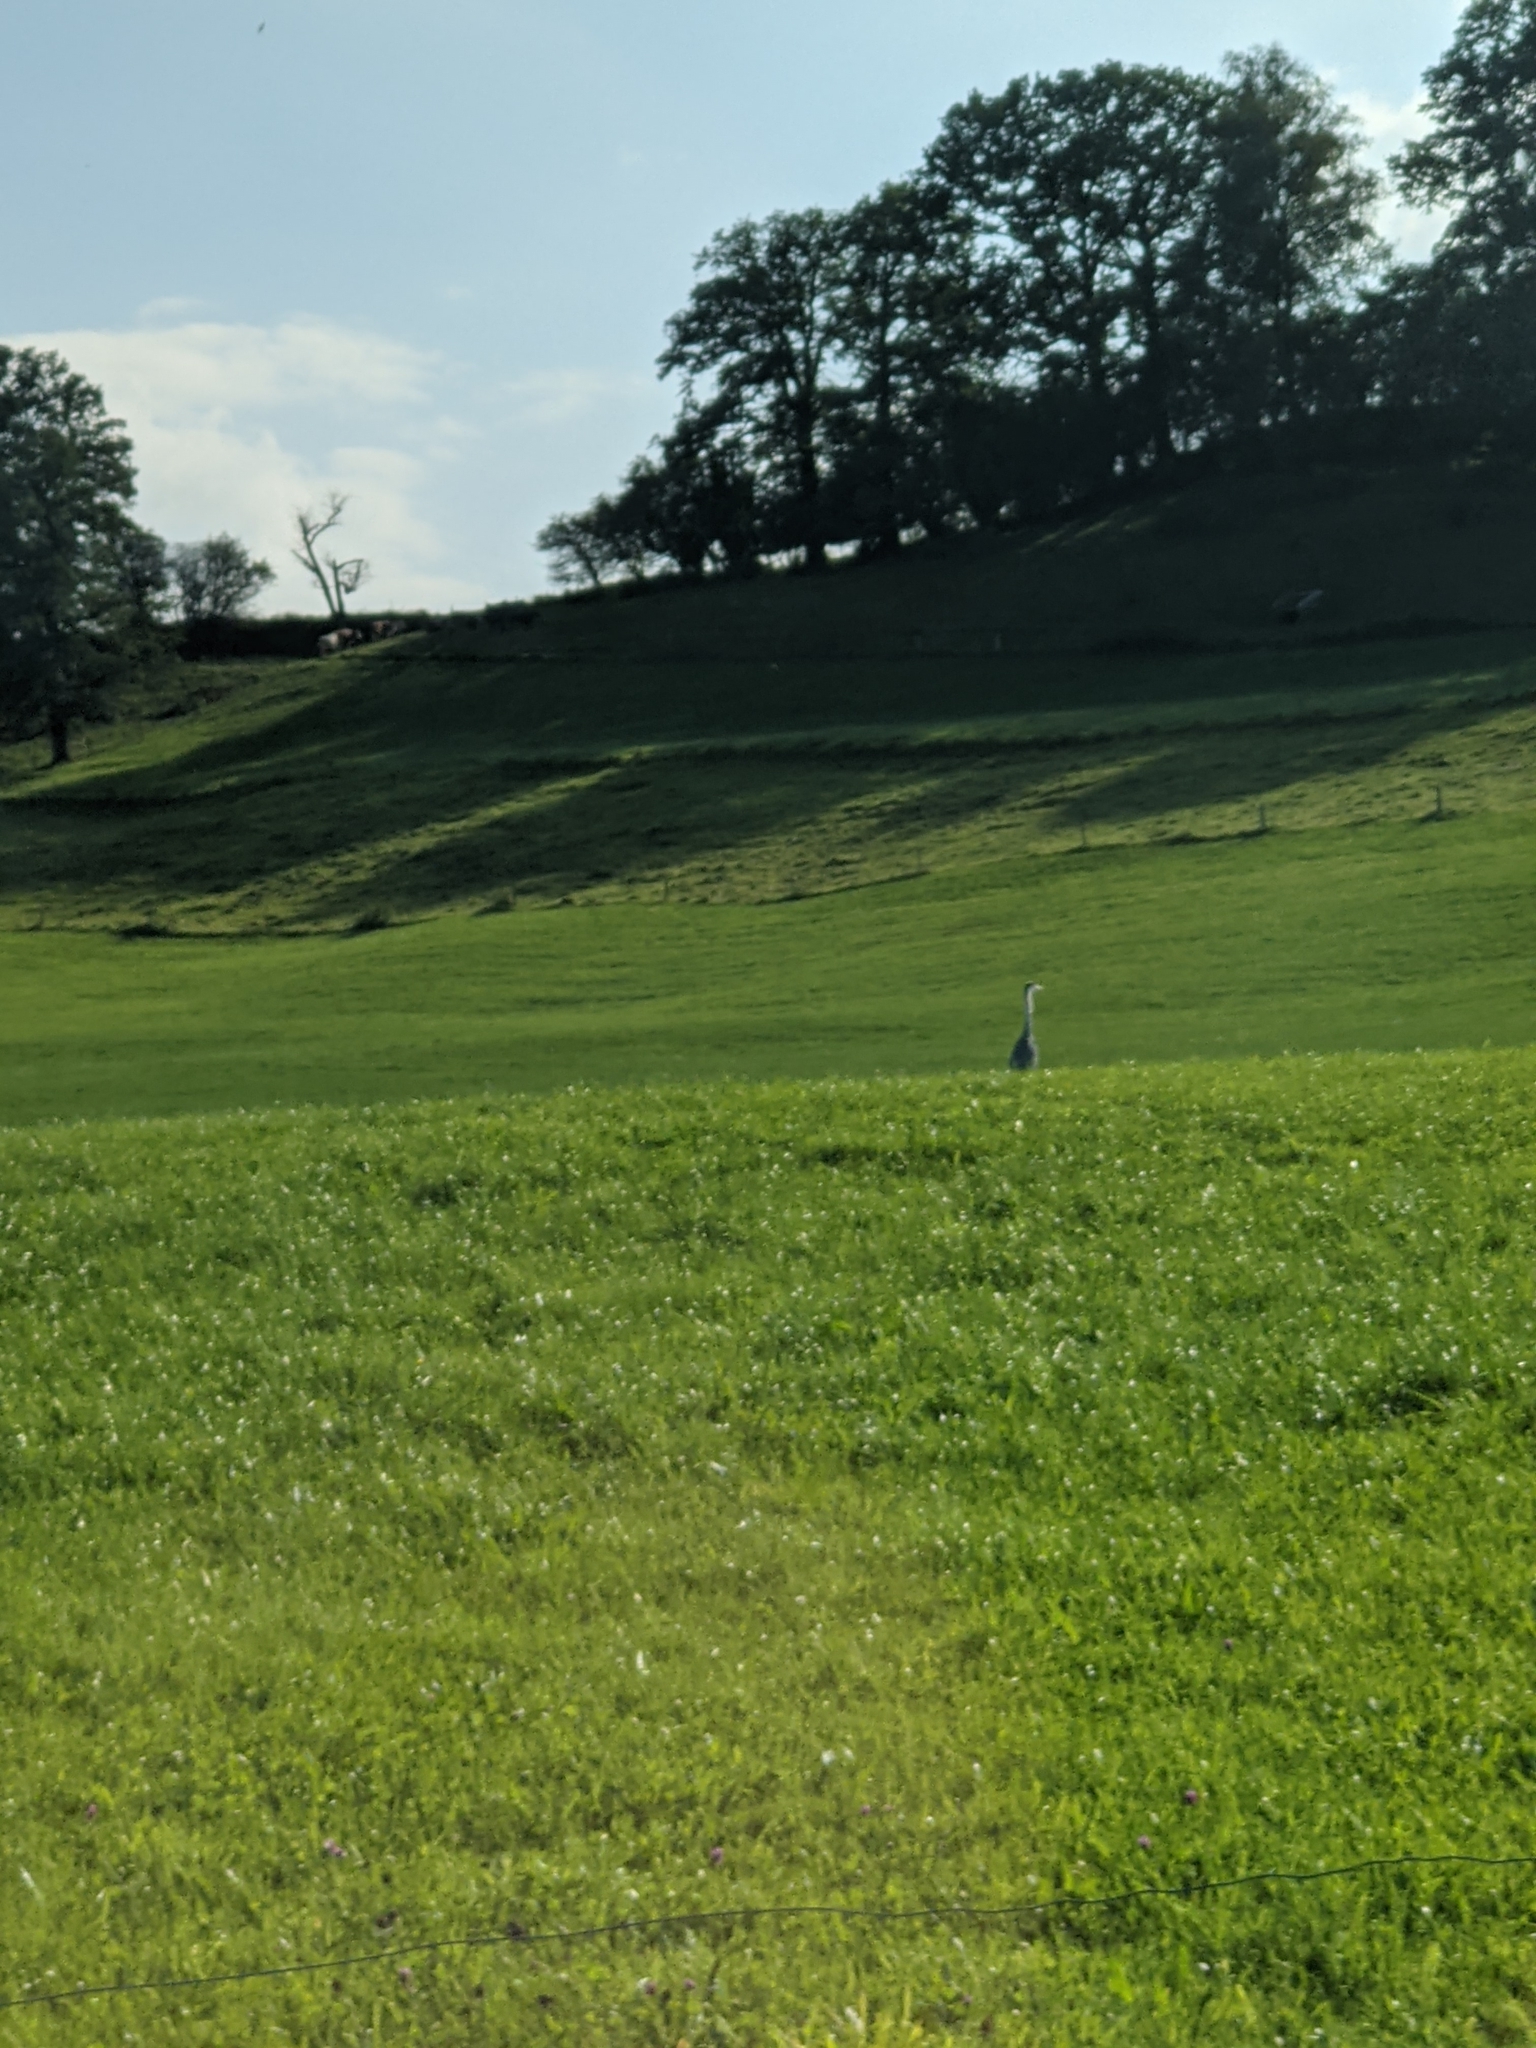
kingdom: Animalia
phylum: Chordata
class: Aves
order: Pelecaniformes
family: Ardeidae
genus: Ardea
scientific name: Ardea cinerea
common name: Grey heron
